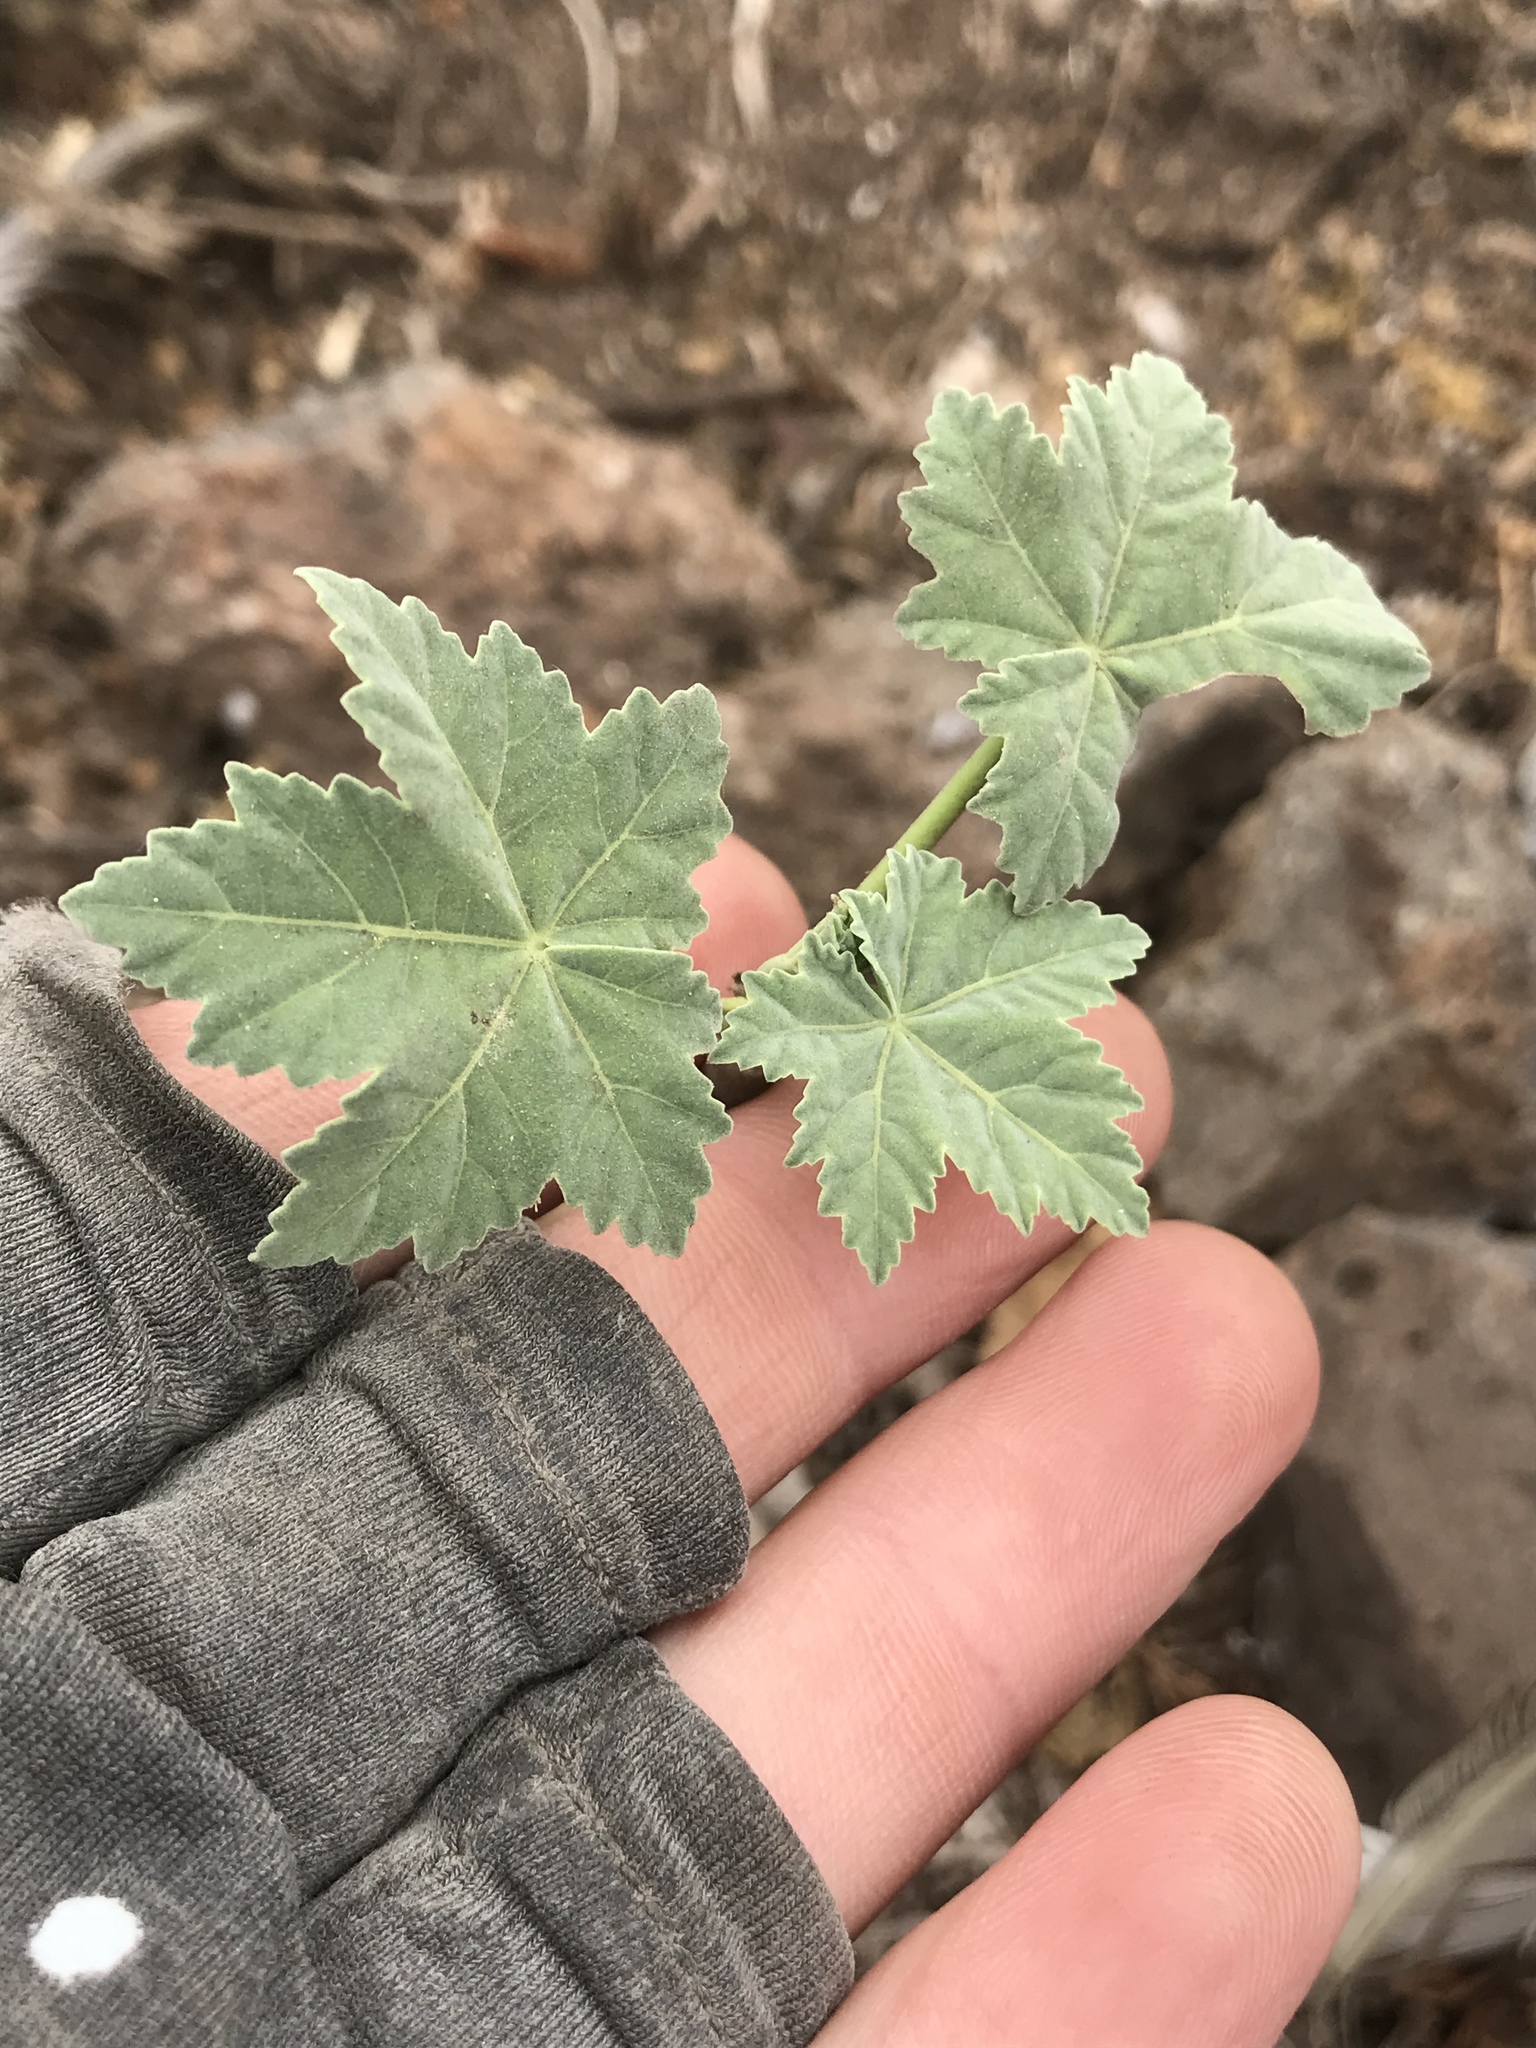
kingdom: Plantae
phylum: Tracheophyta
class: Magnoliopsida
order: Malvales
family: Malvaceae
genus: Malva
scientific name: Malva assurgentiflora
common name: Island mallow
